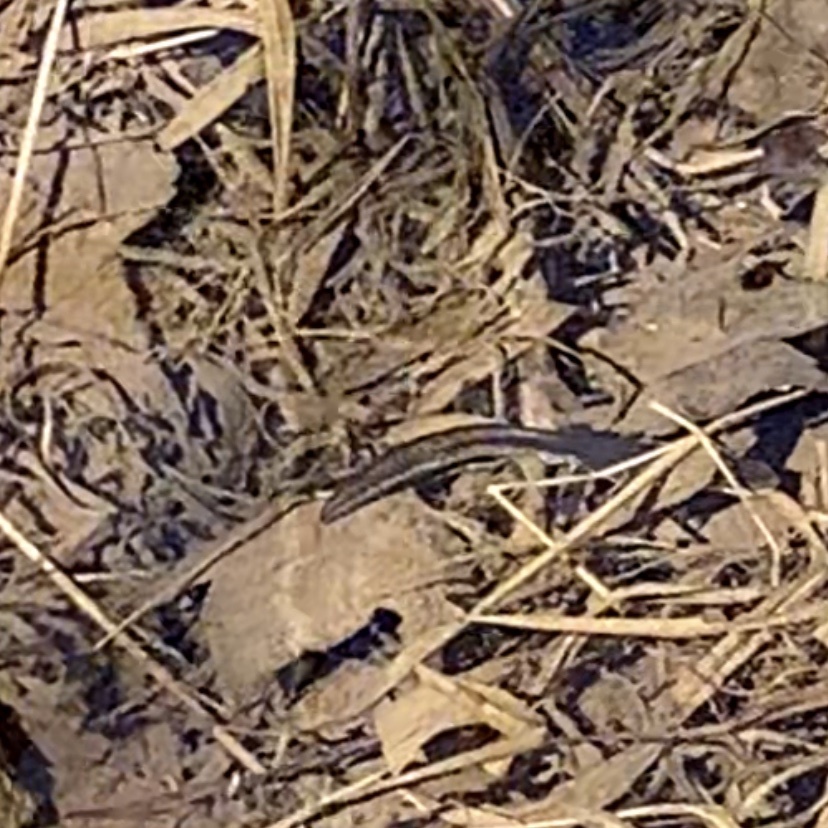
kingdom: Animalia
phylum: Chordata
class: Amphibia
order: Caudata
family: Salamandridae
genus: Notophthalmus
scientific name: Notophthalmus viridescens
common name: Eastern newt
